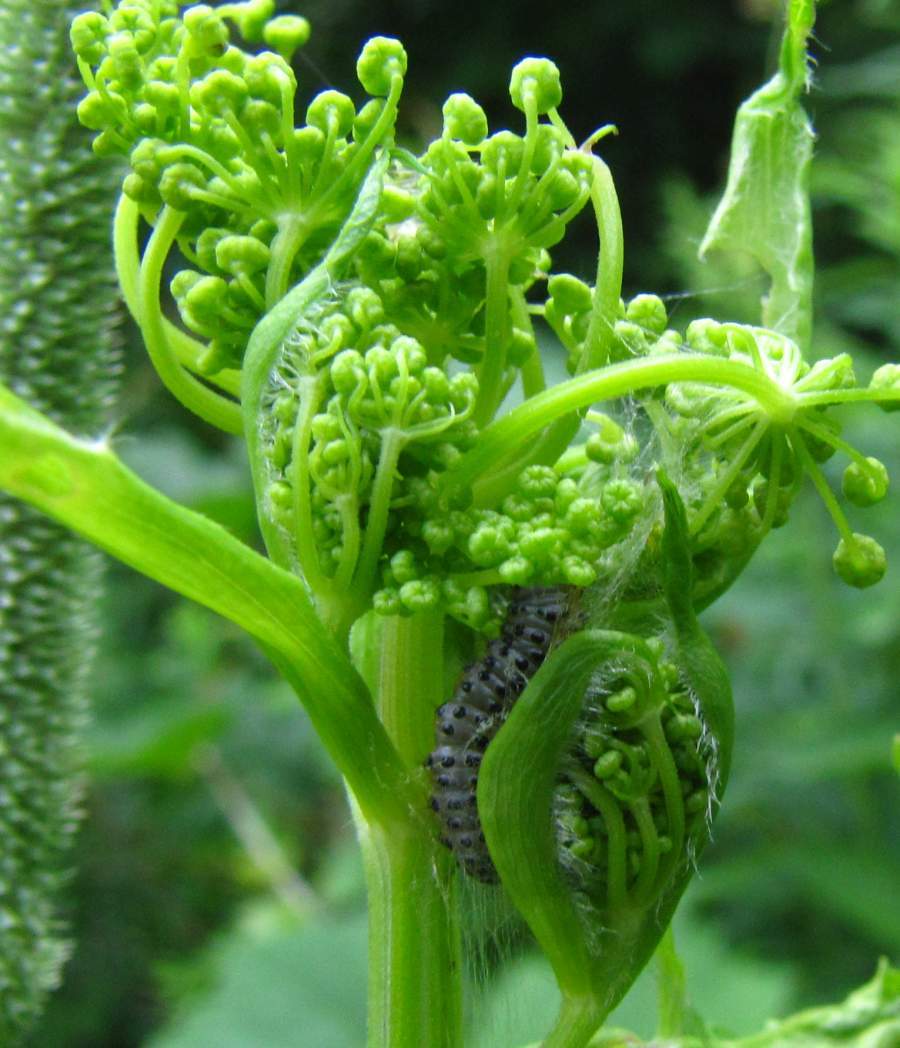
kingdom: Animalia
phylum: Arthropoda
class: Insecta
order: Lepidoptera
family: Depressariidae
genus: Depressaria
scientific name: Depressaria radiella
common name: Parsnip moth
